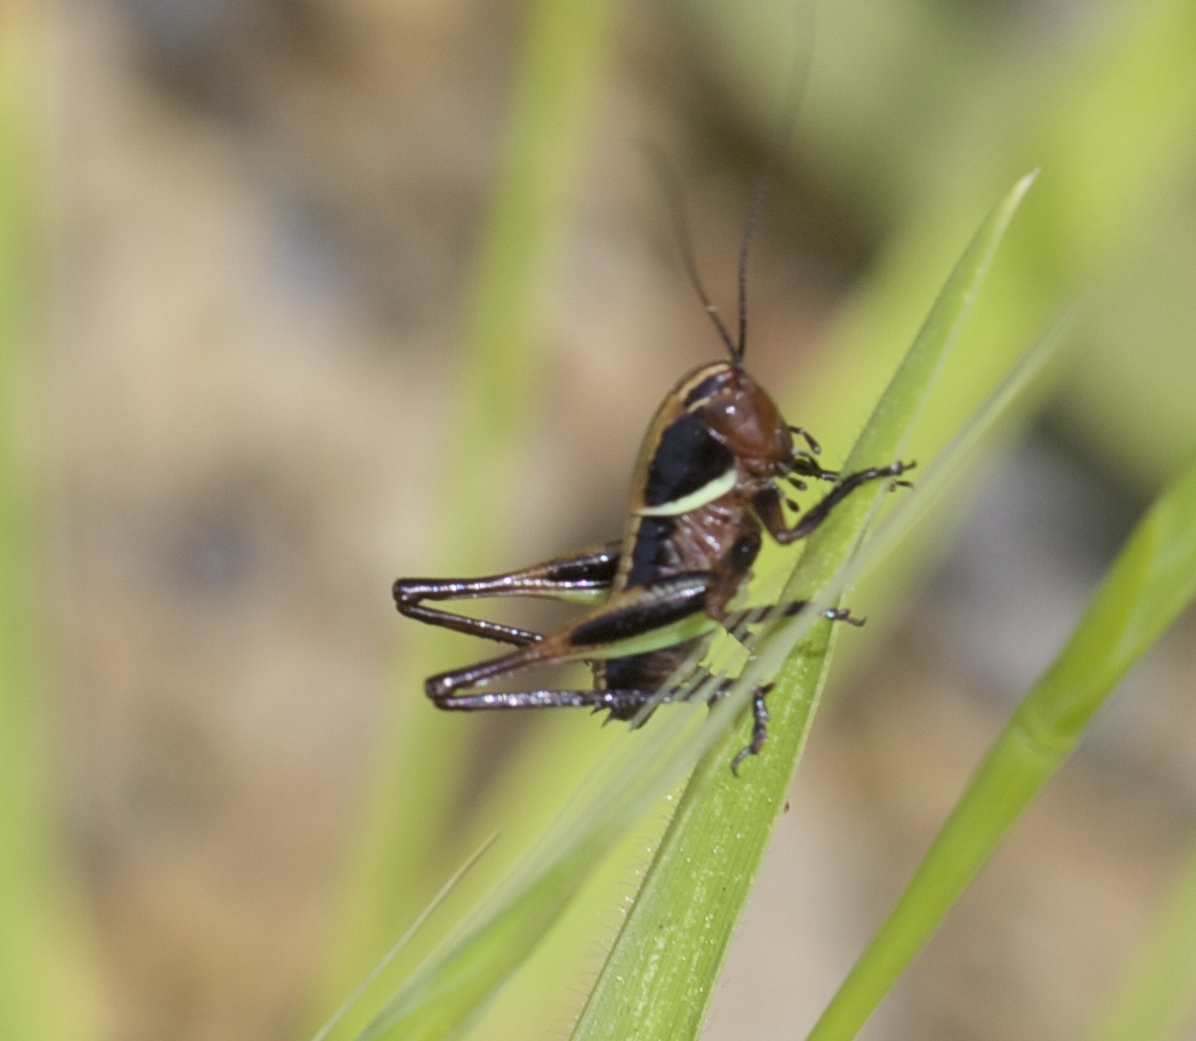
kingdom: Animalia
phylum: Arthropoda
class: Insecta
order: Orthoptera
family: Tettigoniidae
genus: Decticita
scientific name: Decticita brevicauda
